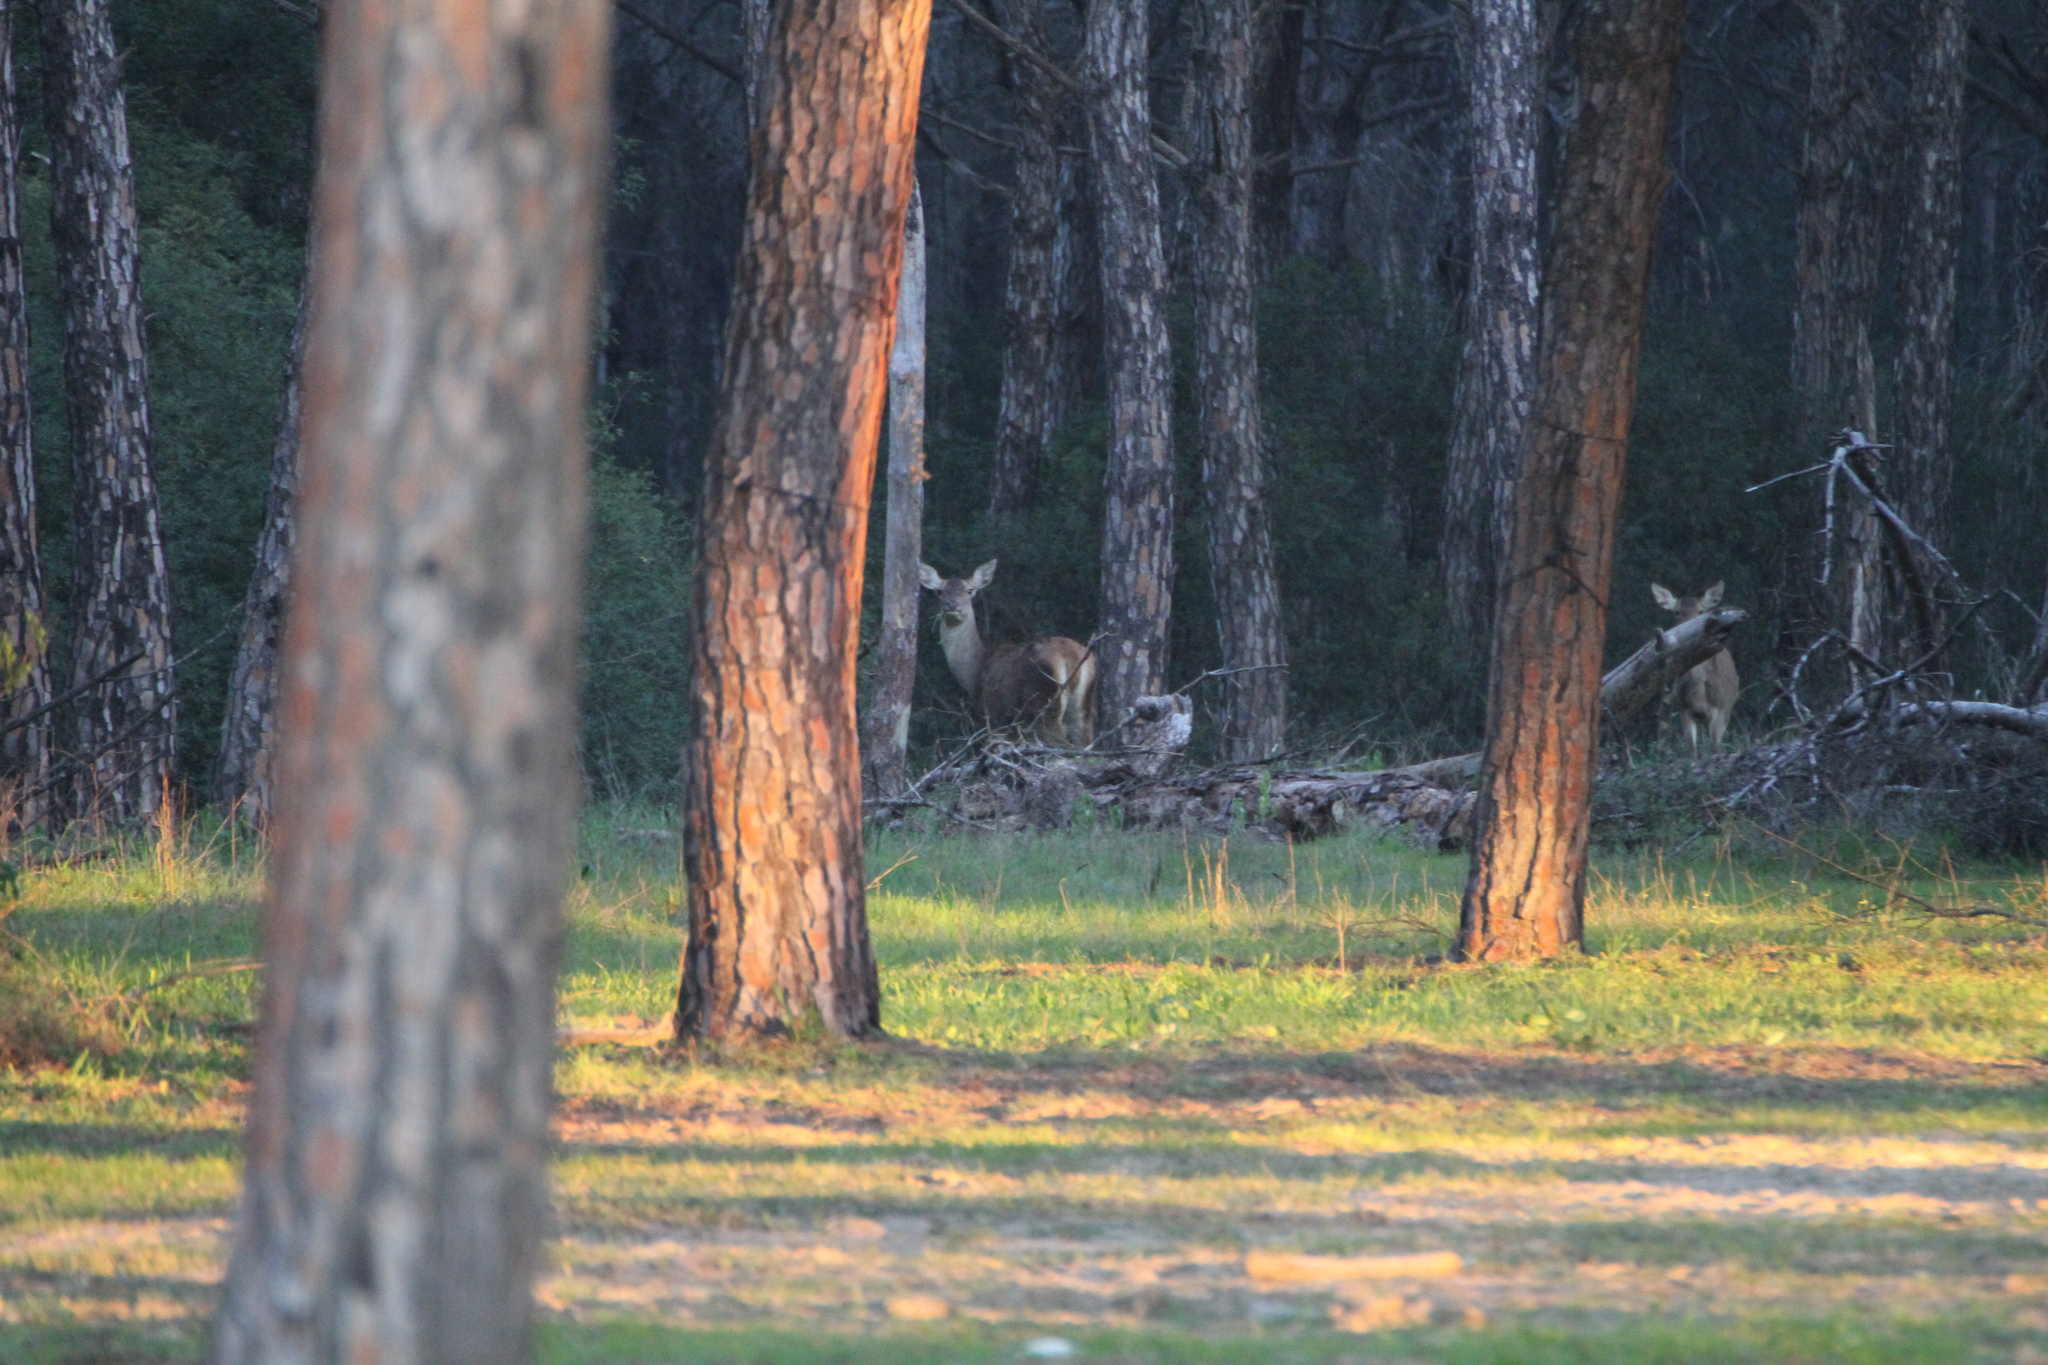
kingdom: Animalia
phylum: Chordata
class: Mammalia
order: Artiodactyla
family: Cervidae
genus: Cervus
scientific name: Cervus elaphus
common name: Red deer
